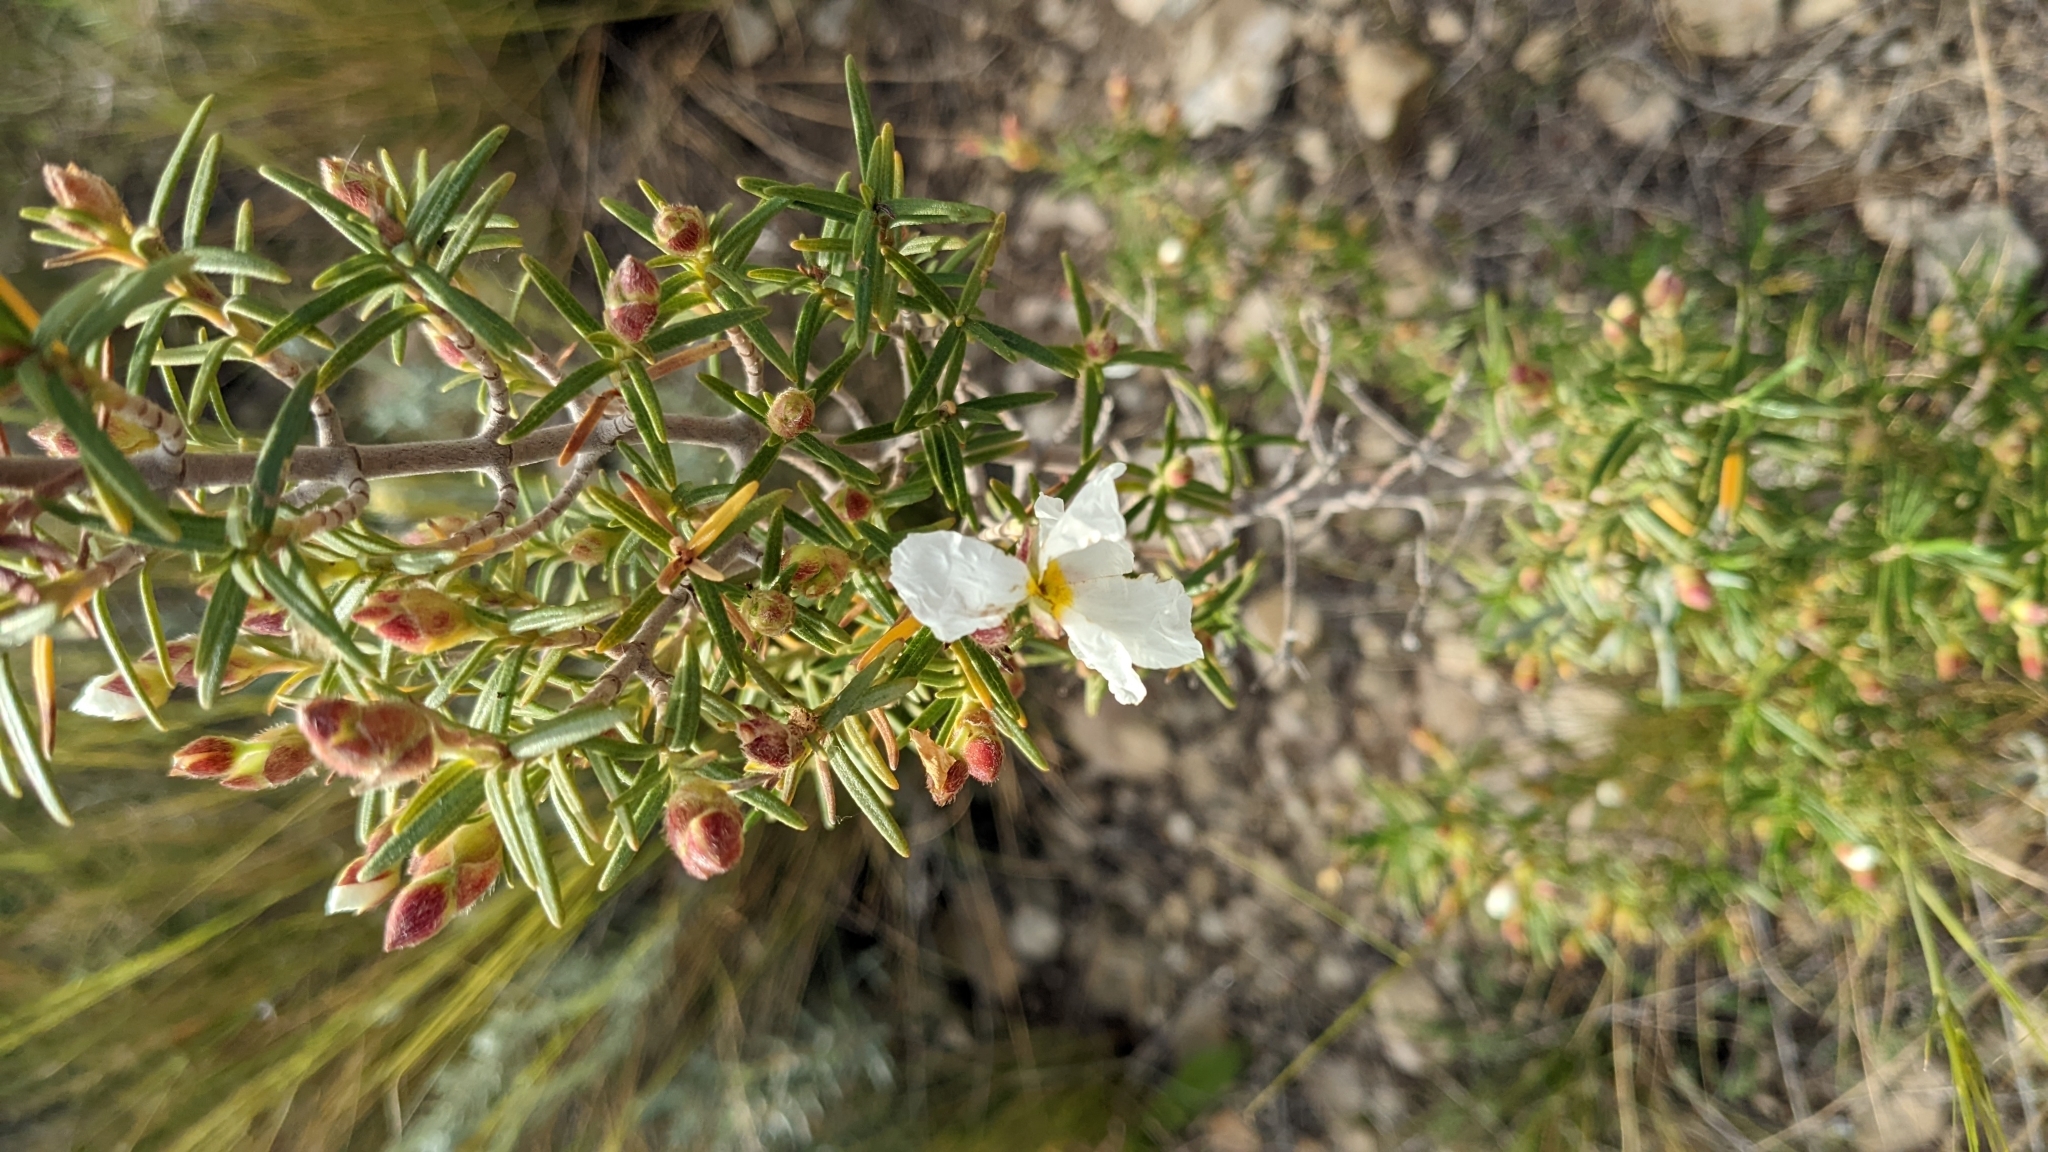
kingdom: Plantae
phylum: Tracheophyta
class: Magnoliopsida
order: Malvales
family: Cistaceae
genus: Cistus
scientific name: Cistus clusii
